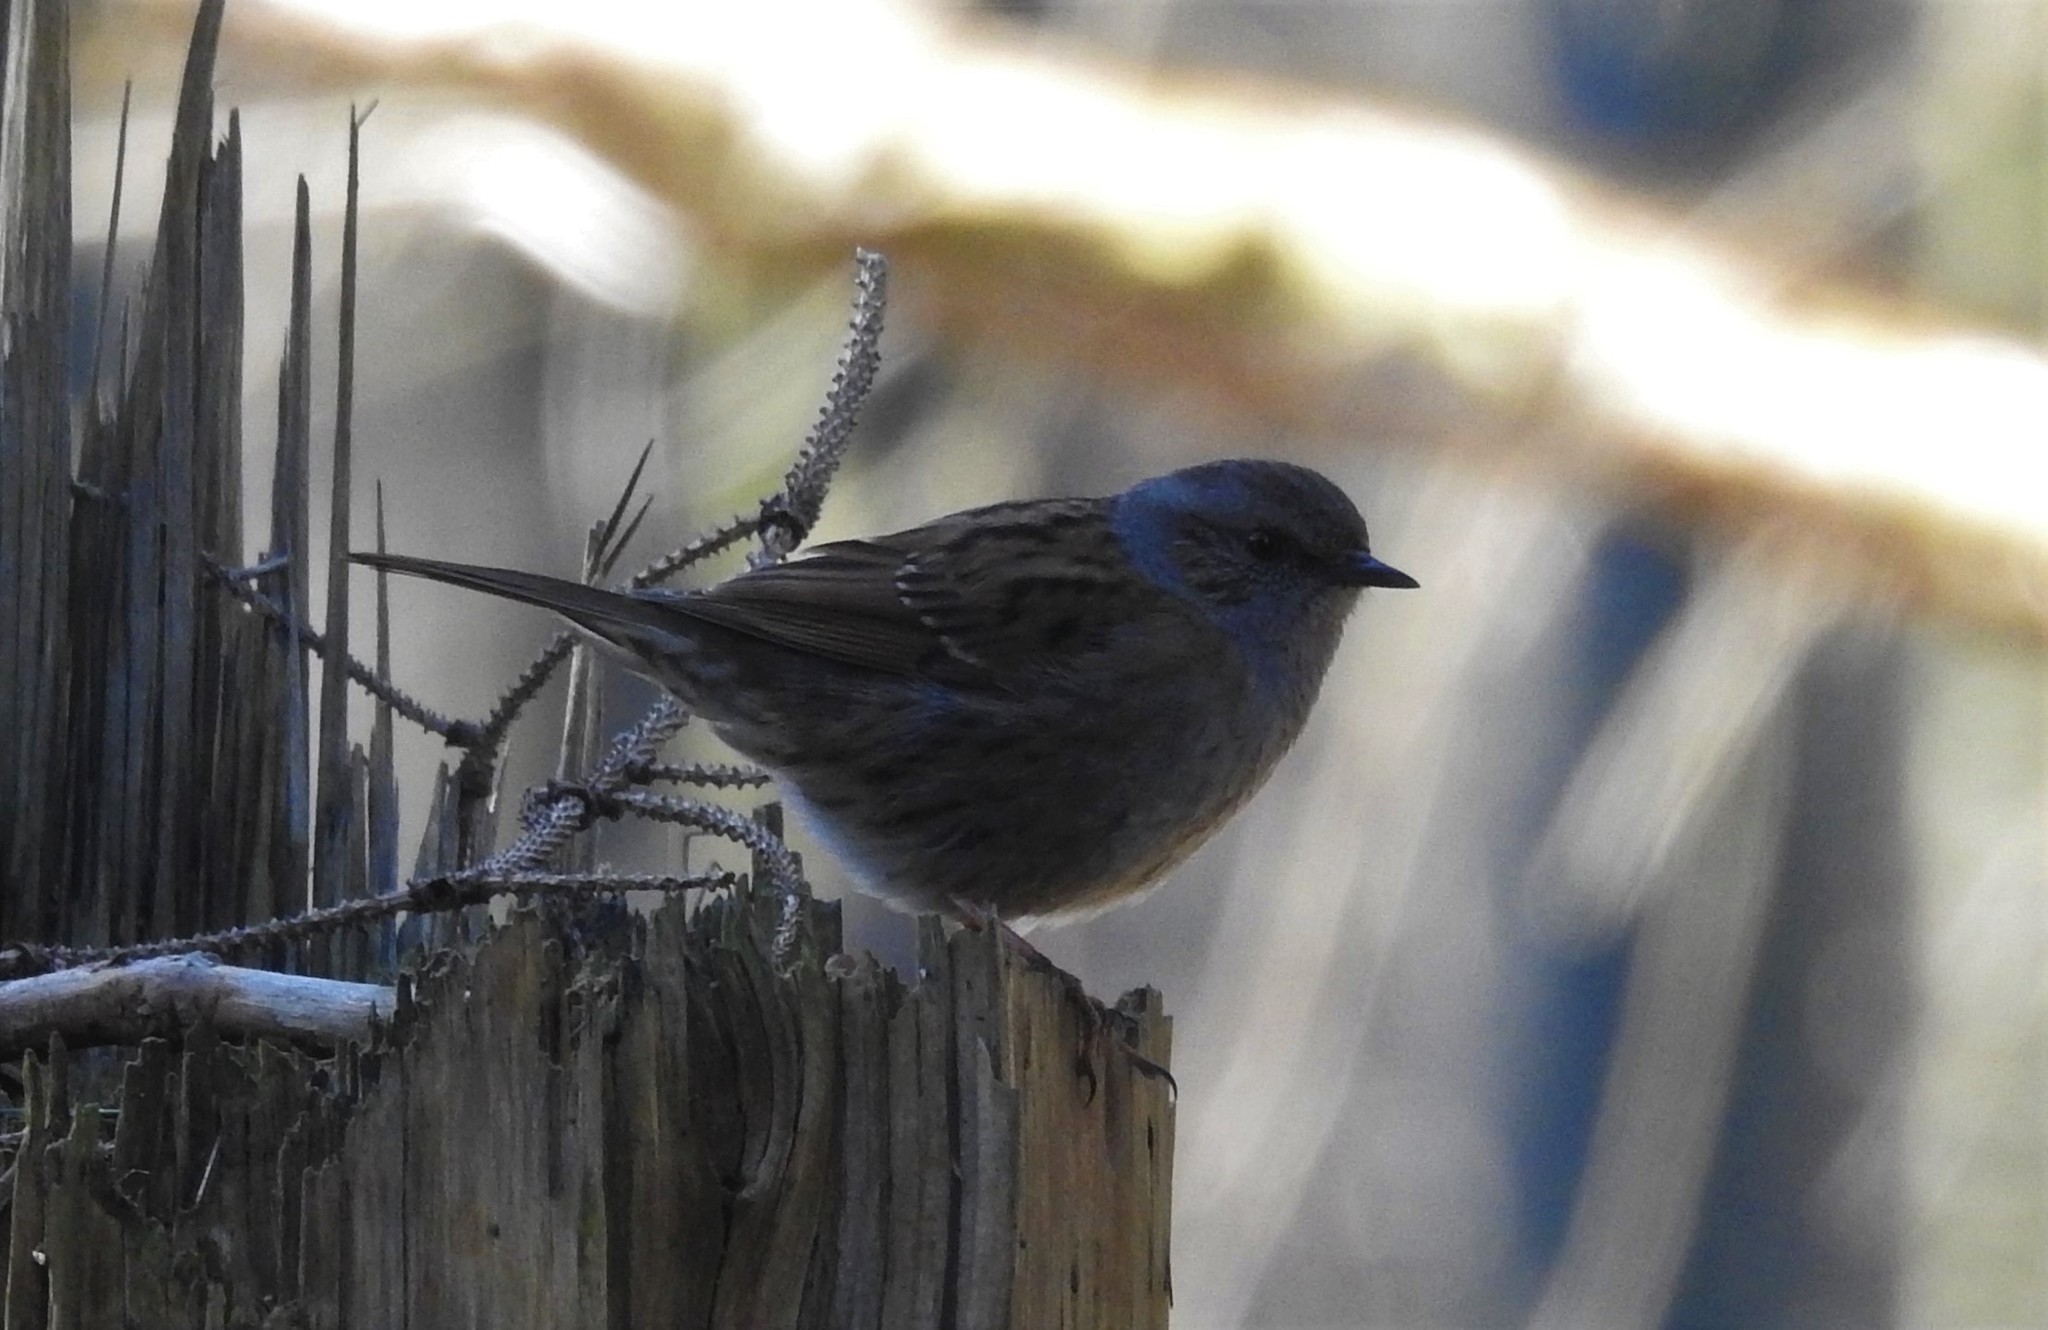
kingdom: Animalia
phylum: Chordata
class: Aves
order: Passeriformes
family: Prunellidae
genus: Prunella
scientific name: Prunella modularis
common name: Dunnock
